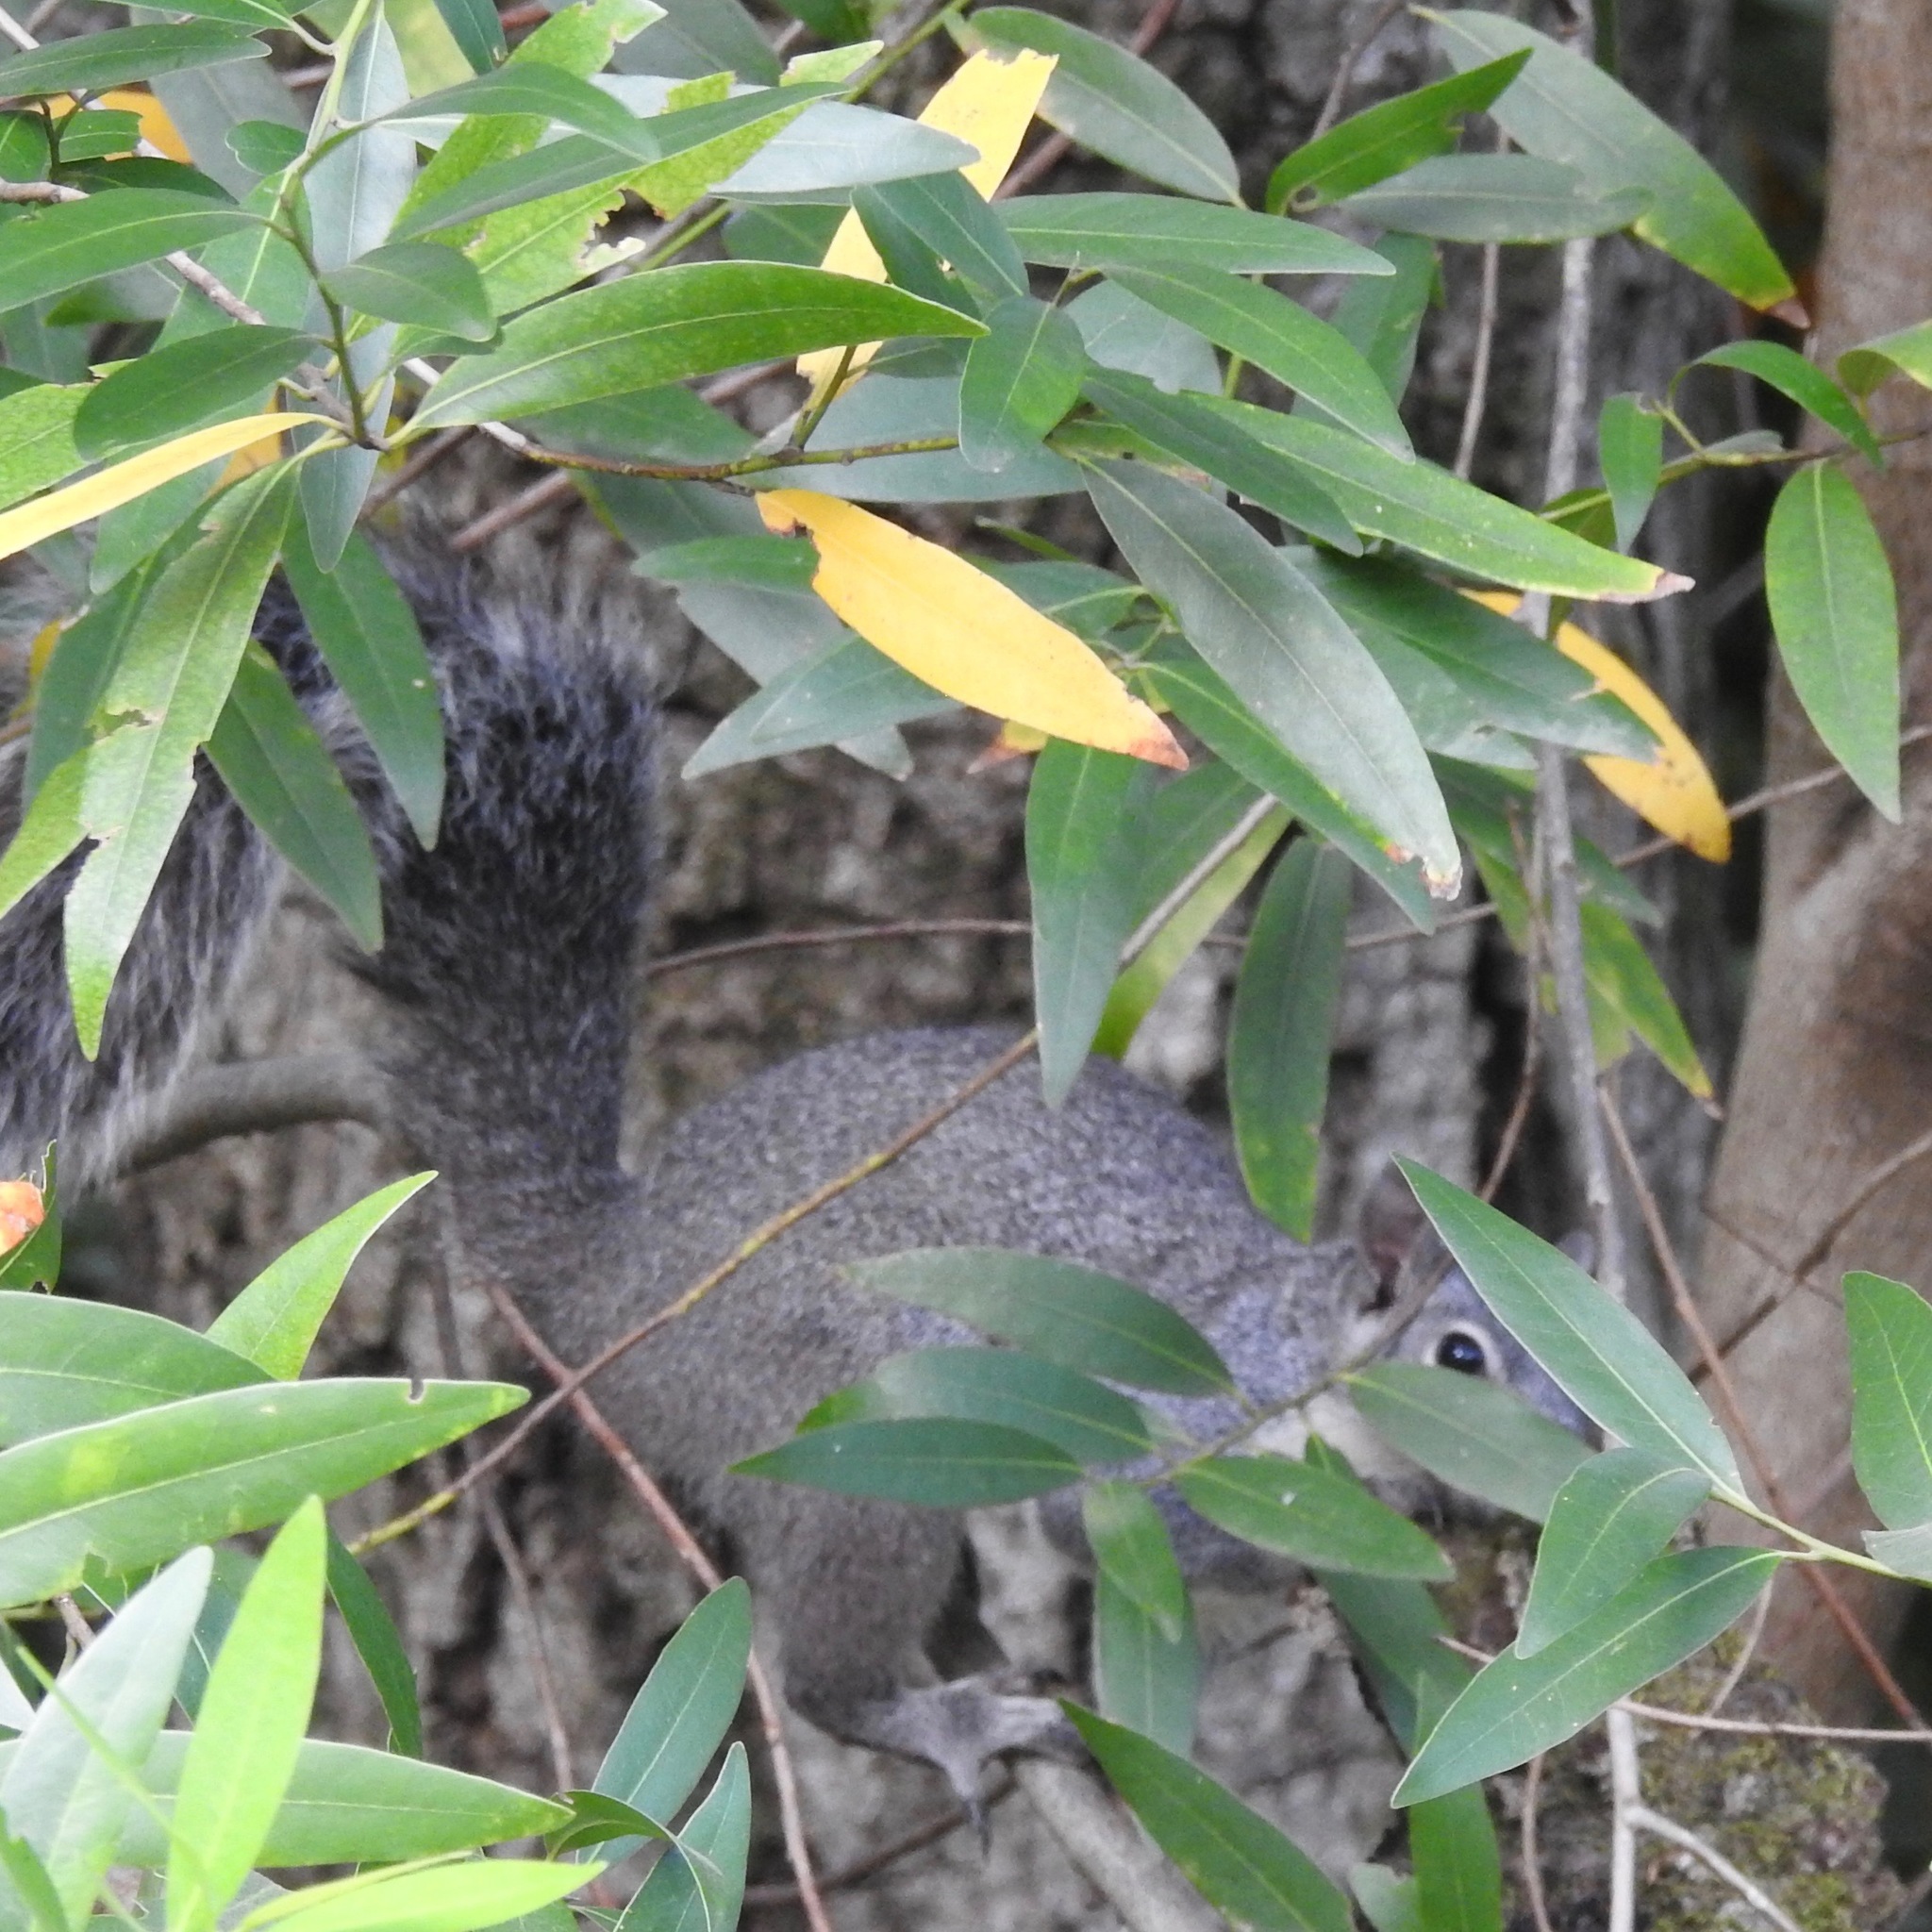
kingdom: Animalia
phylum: Chordata
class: Mammalia
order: Rodentia
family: Sciuridae
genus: Sciurus
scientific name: Sciurus griseus
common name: Western gray squirrel
